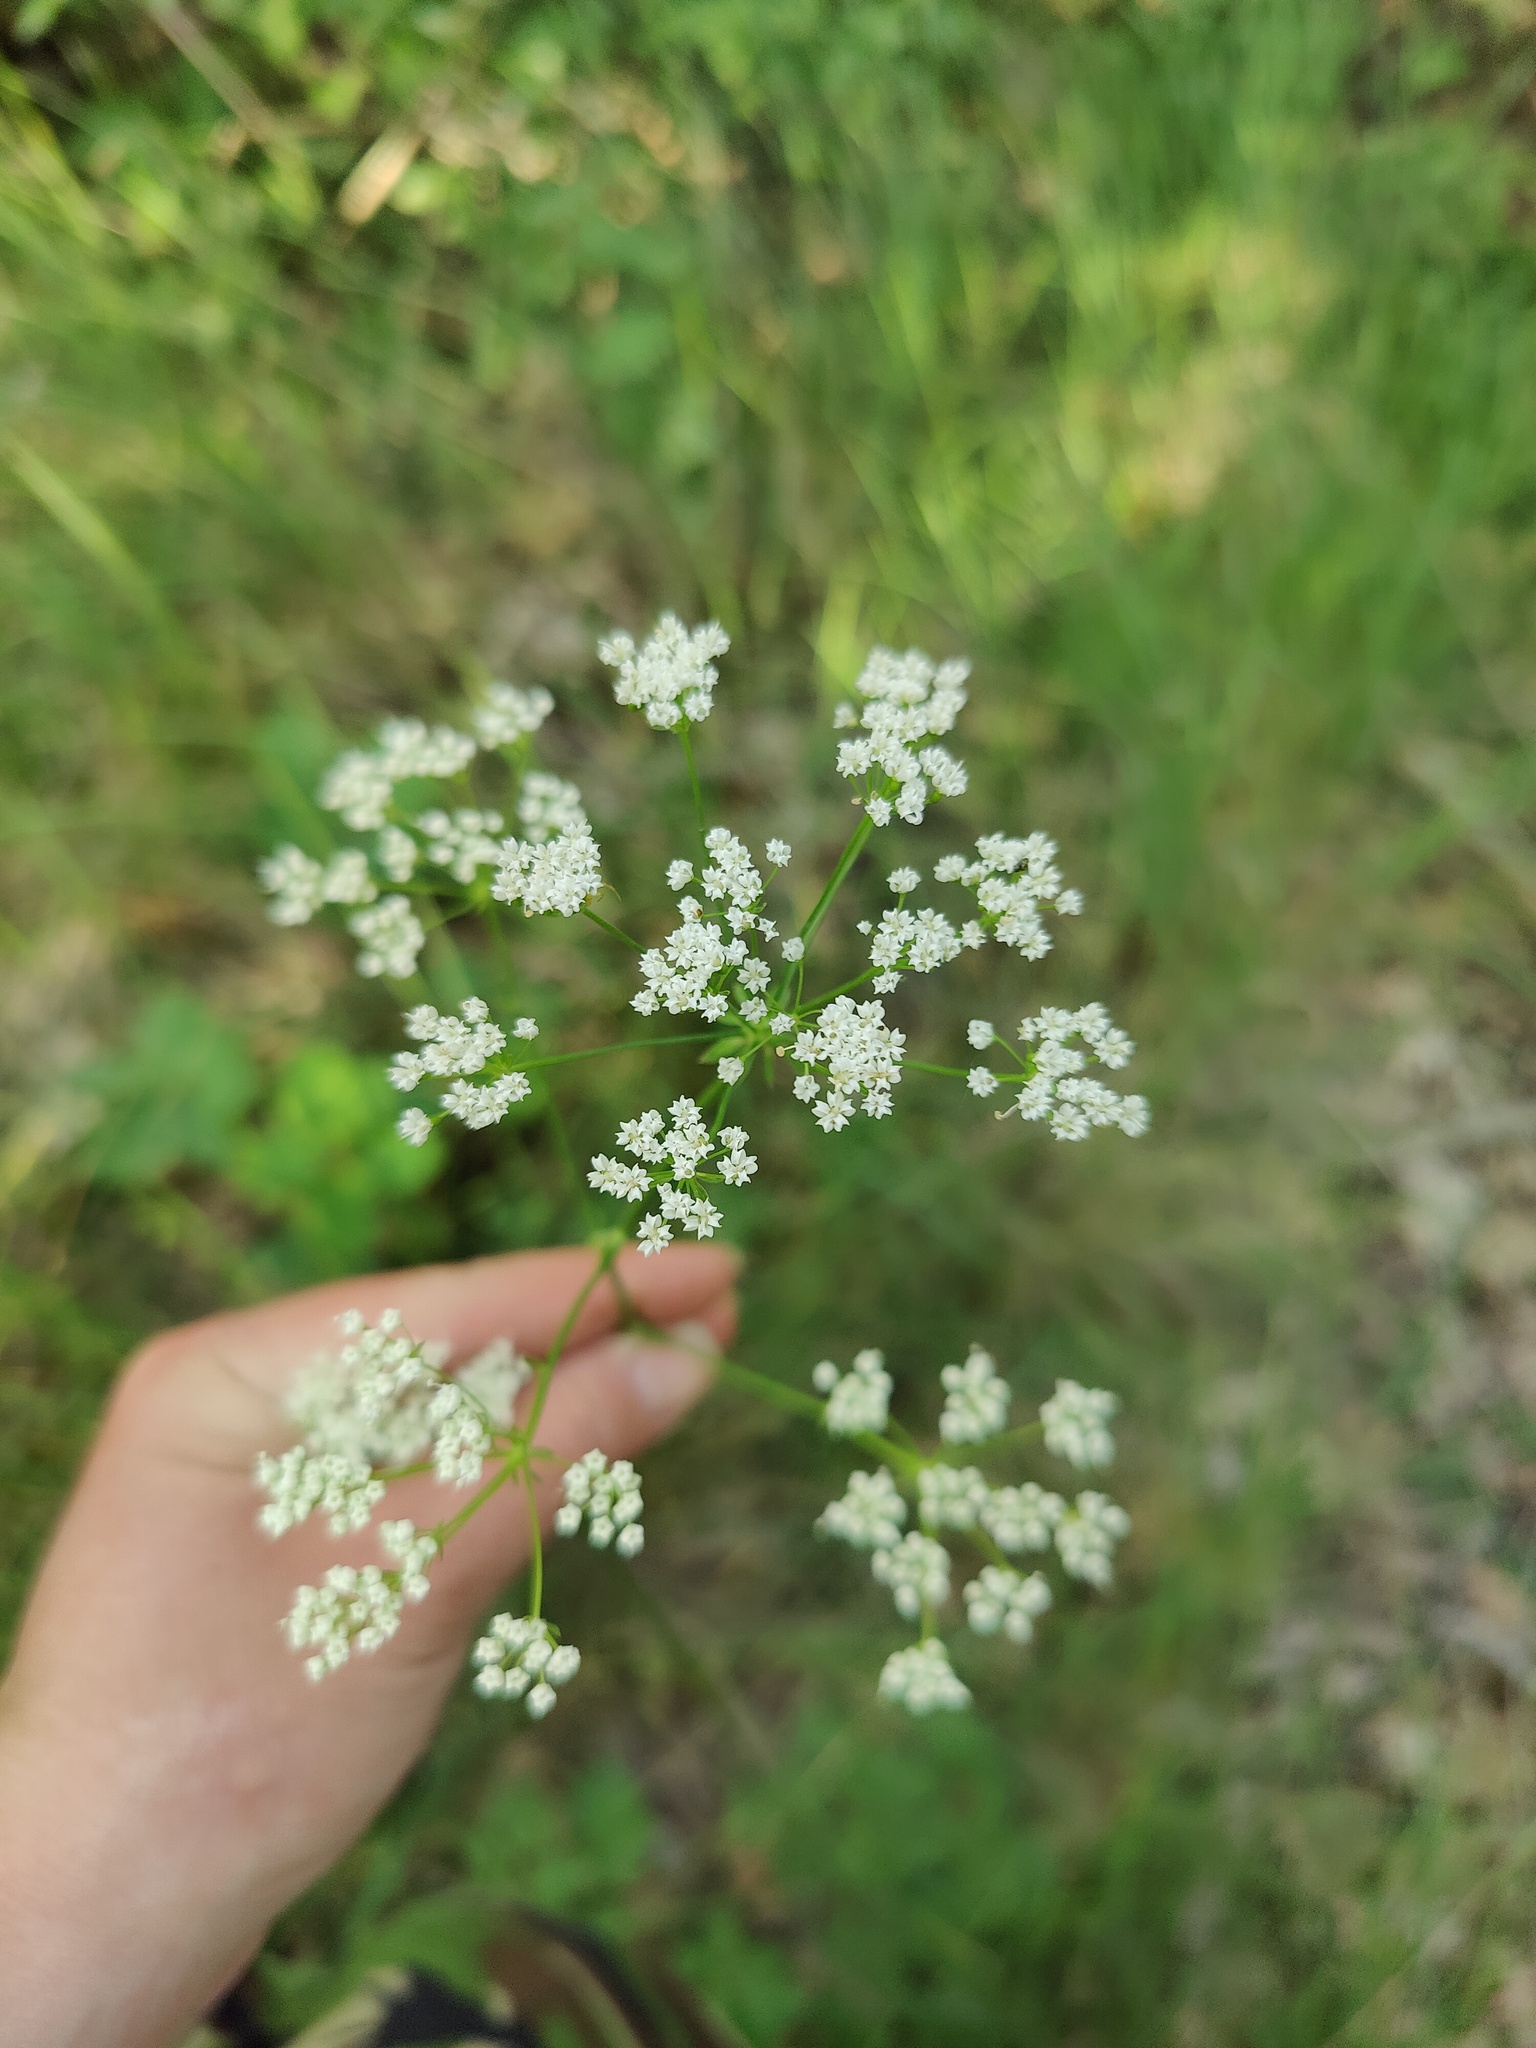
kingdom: Plantae
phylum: Tracheophyta
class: Magnoliopsida
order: Apiales
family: Apiaceae
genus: Physospermum
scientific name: Physospermum cornubiense
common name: Bladderseed
